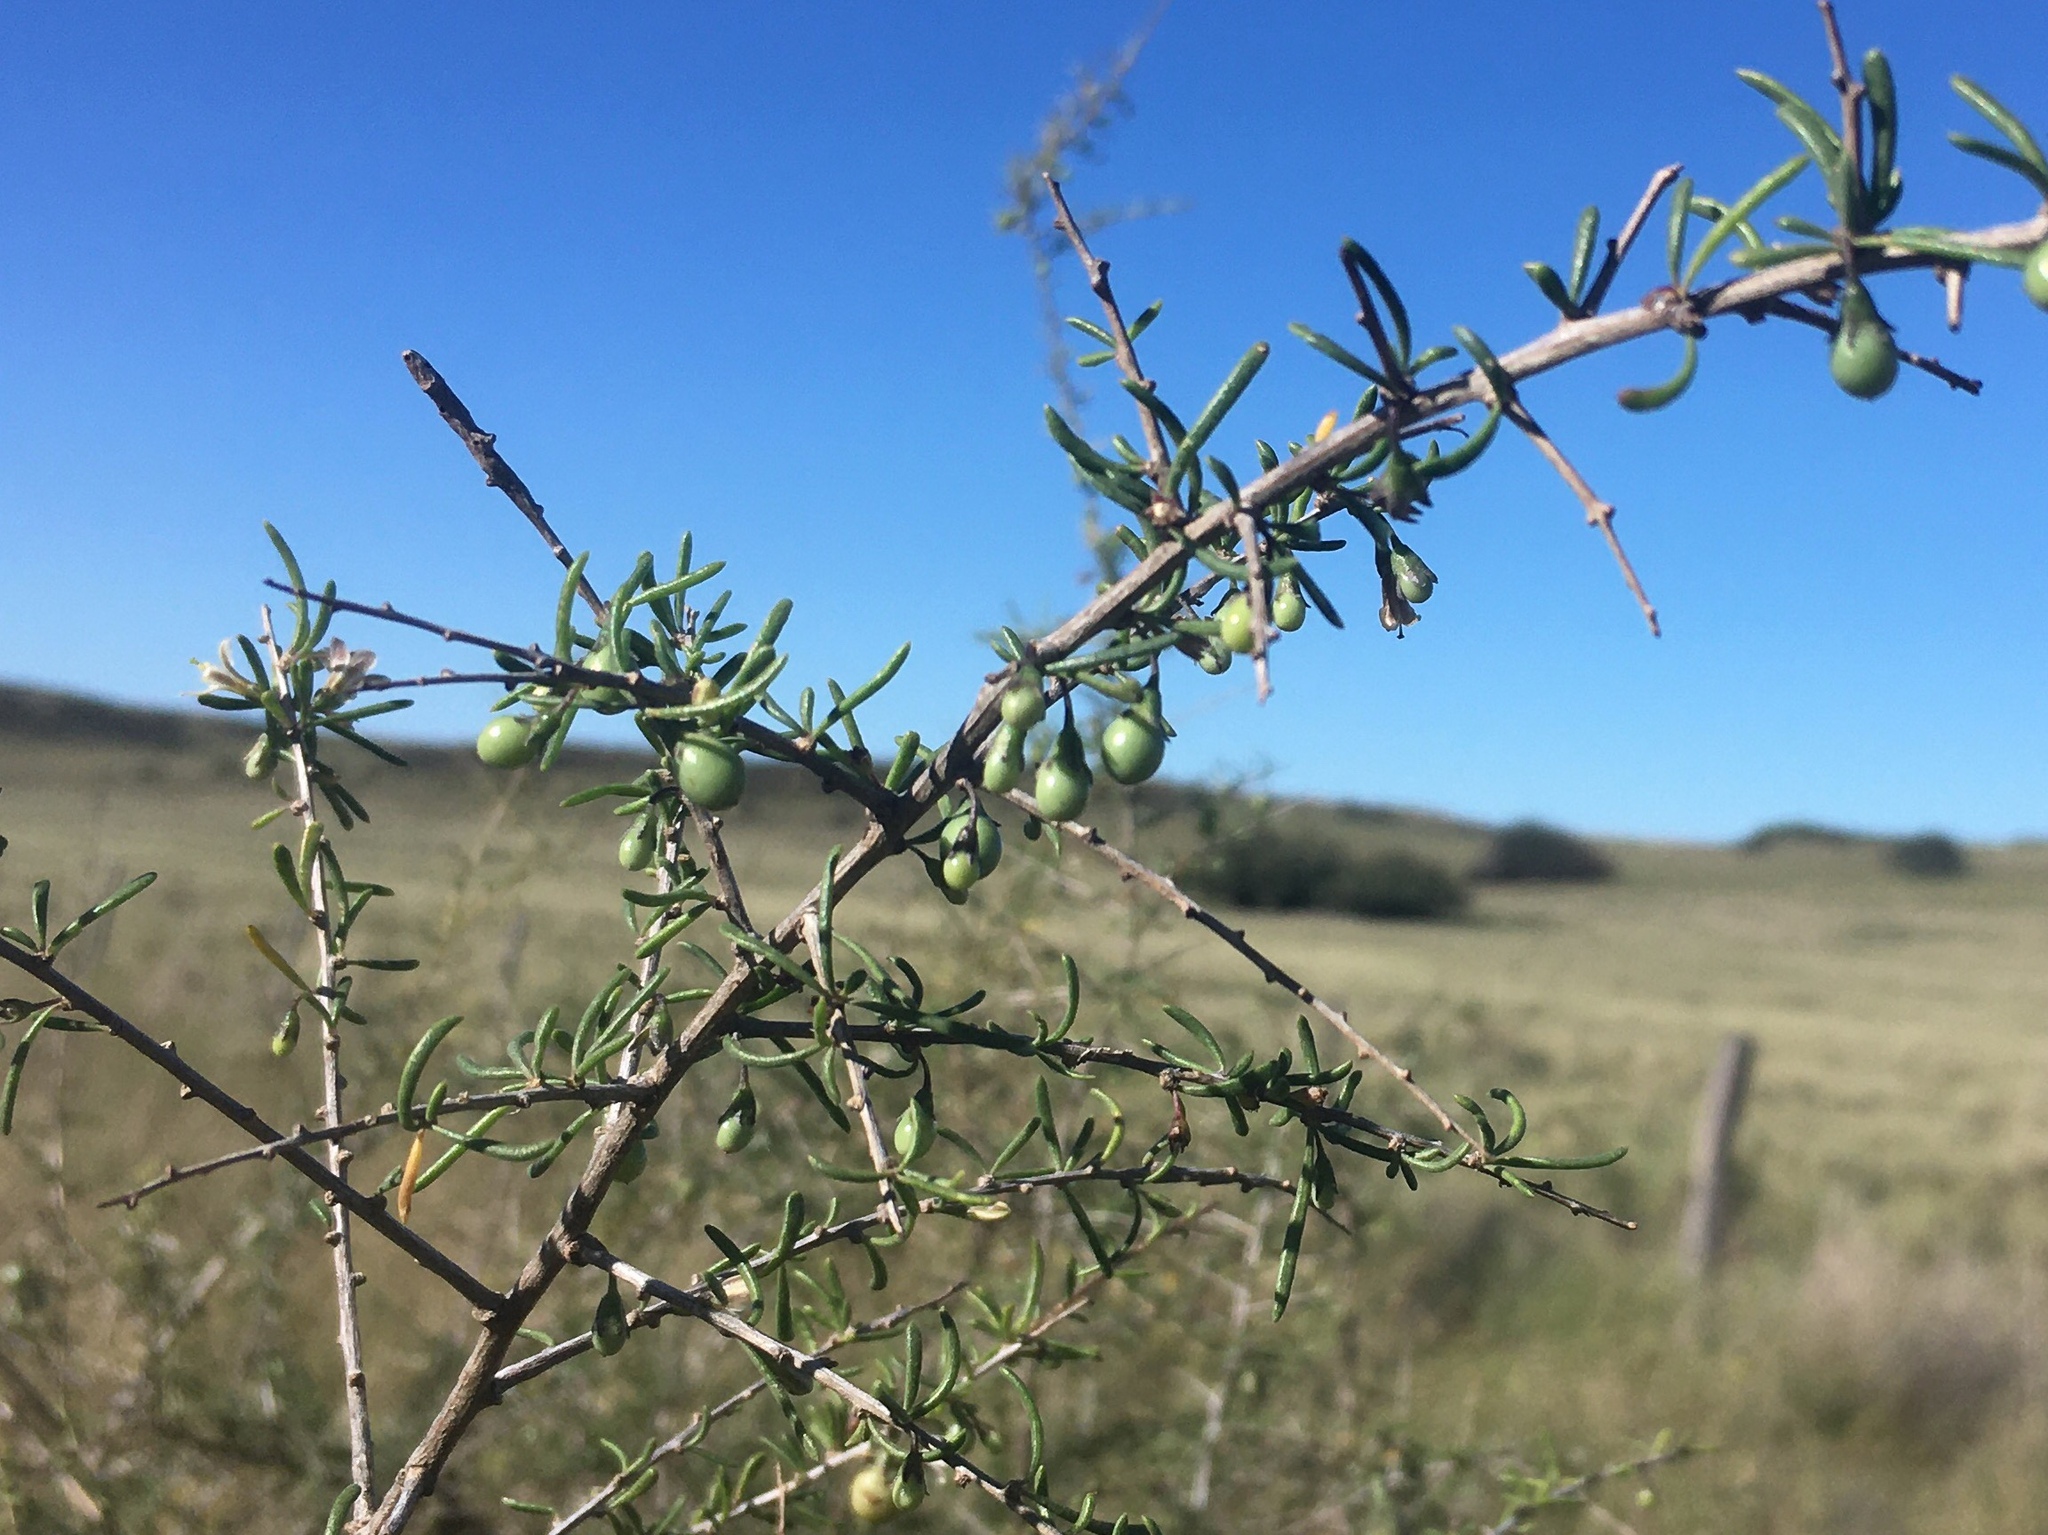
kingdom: Plantae
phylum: Tracheophyta
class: Magnoliopsida
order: Solanales
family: Solanaceae
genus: Lycium
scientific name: Lycium chilense
